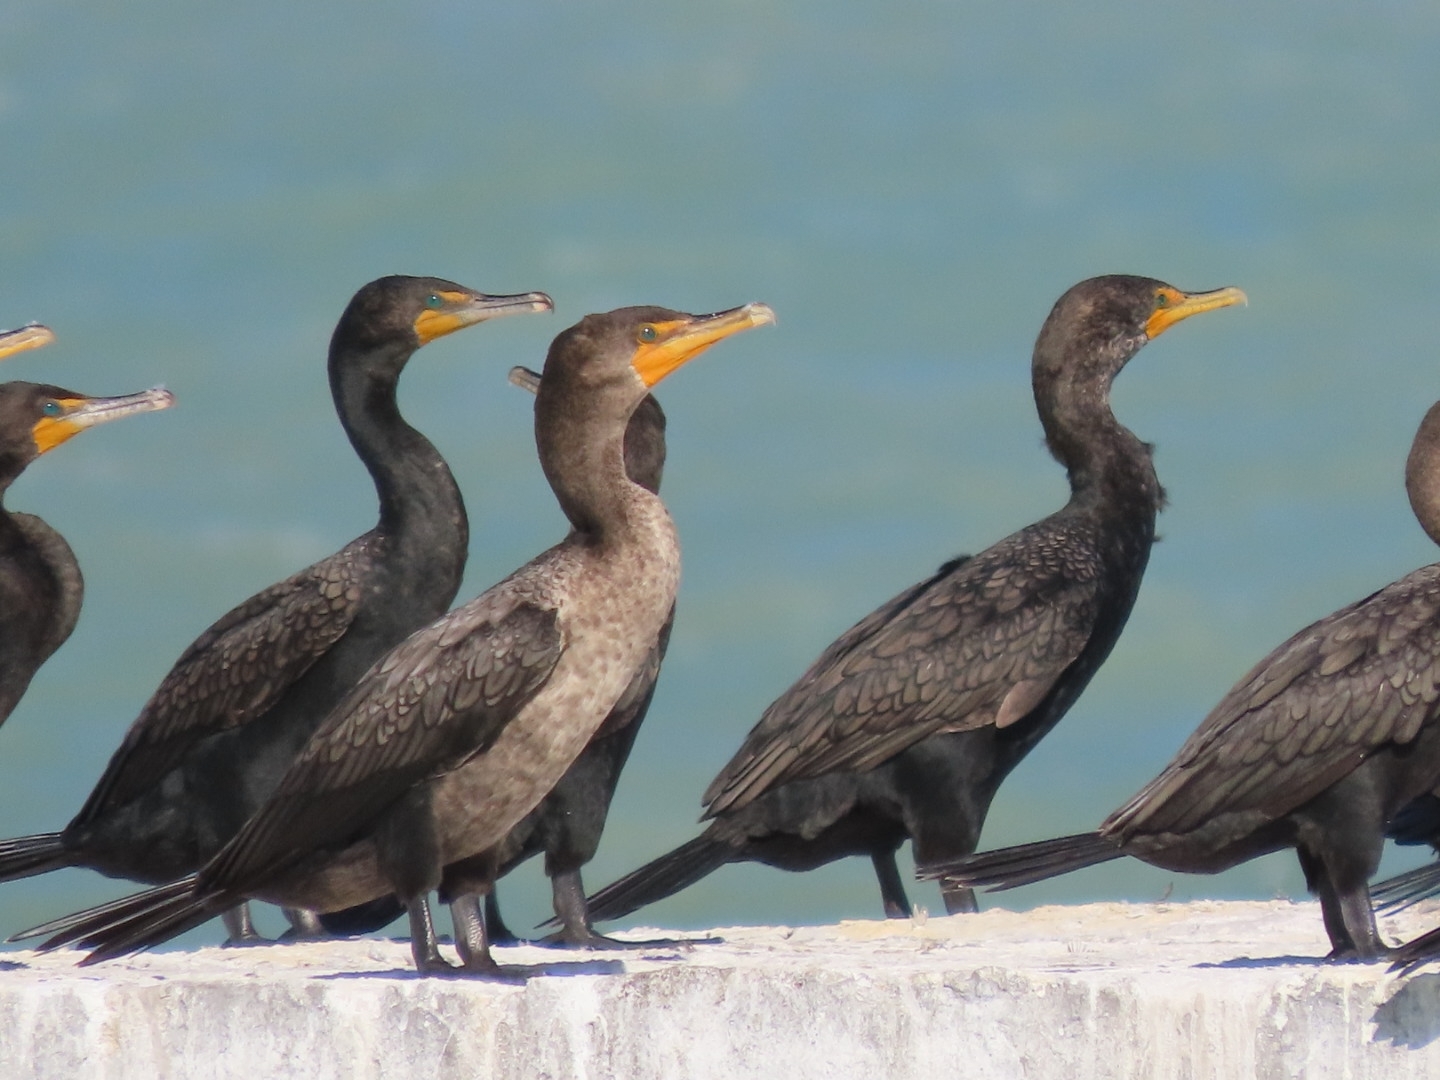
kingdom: Animalia
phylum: Chordata
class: Aves
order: Suliformes
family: Phalacrocoracidae
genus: Phalacrocorax
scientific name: Phalacrocorax auritus
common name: Double-crested cormorant
